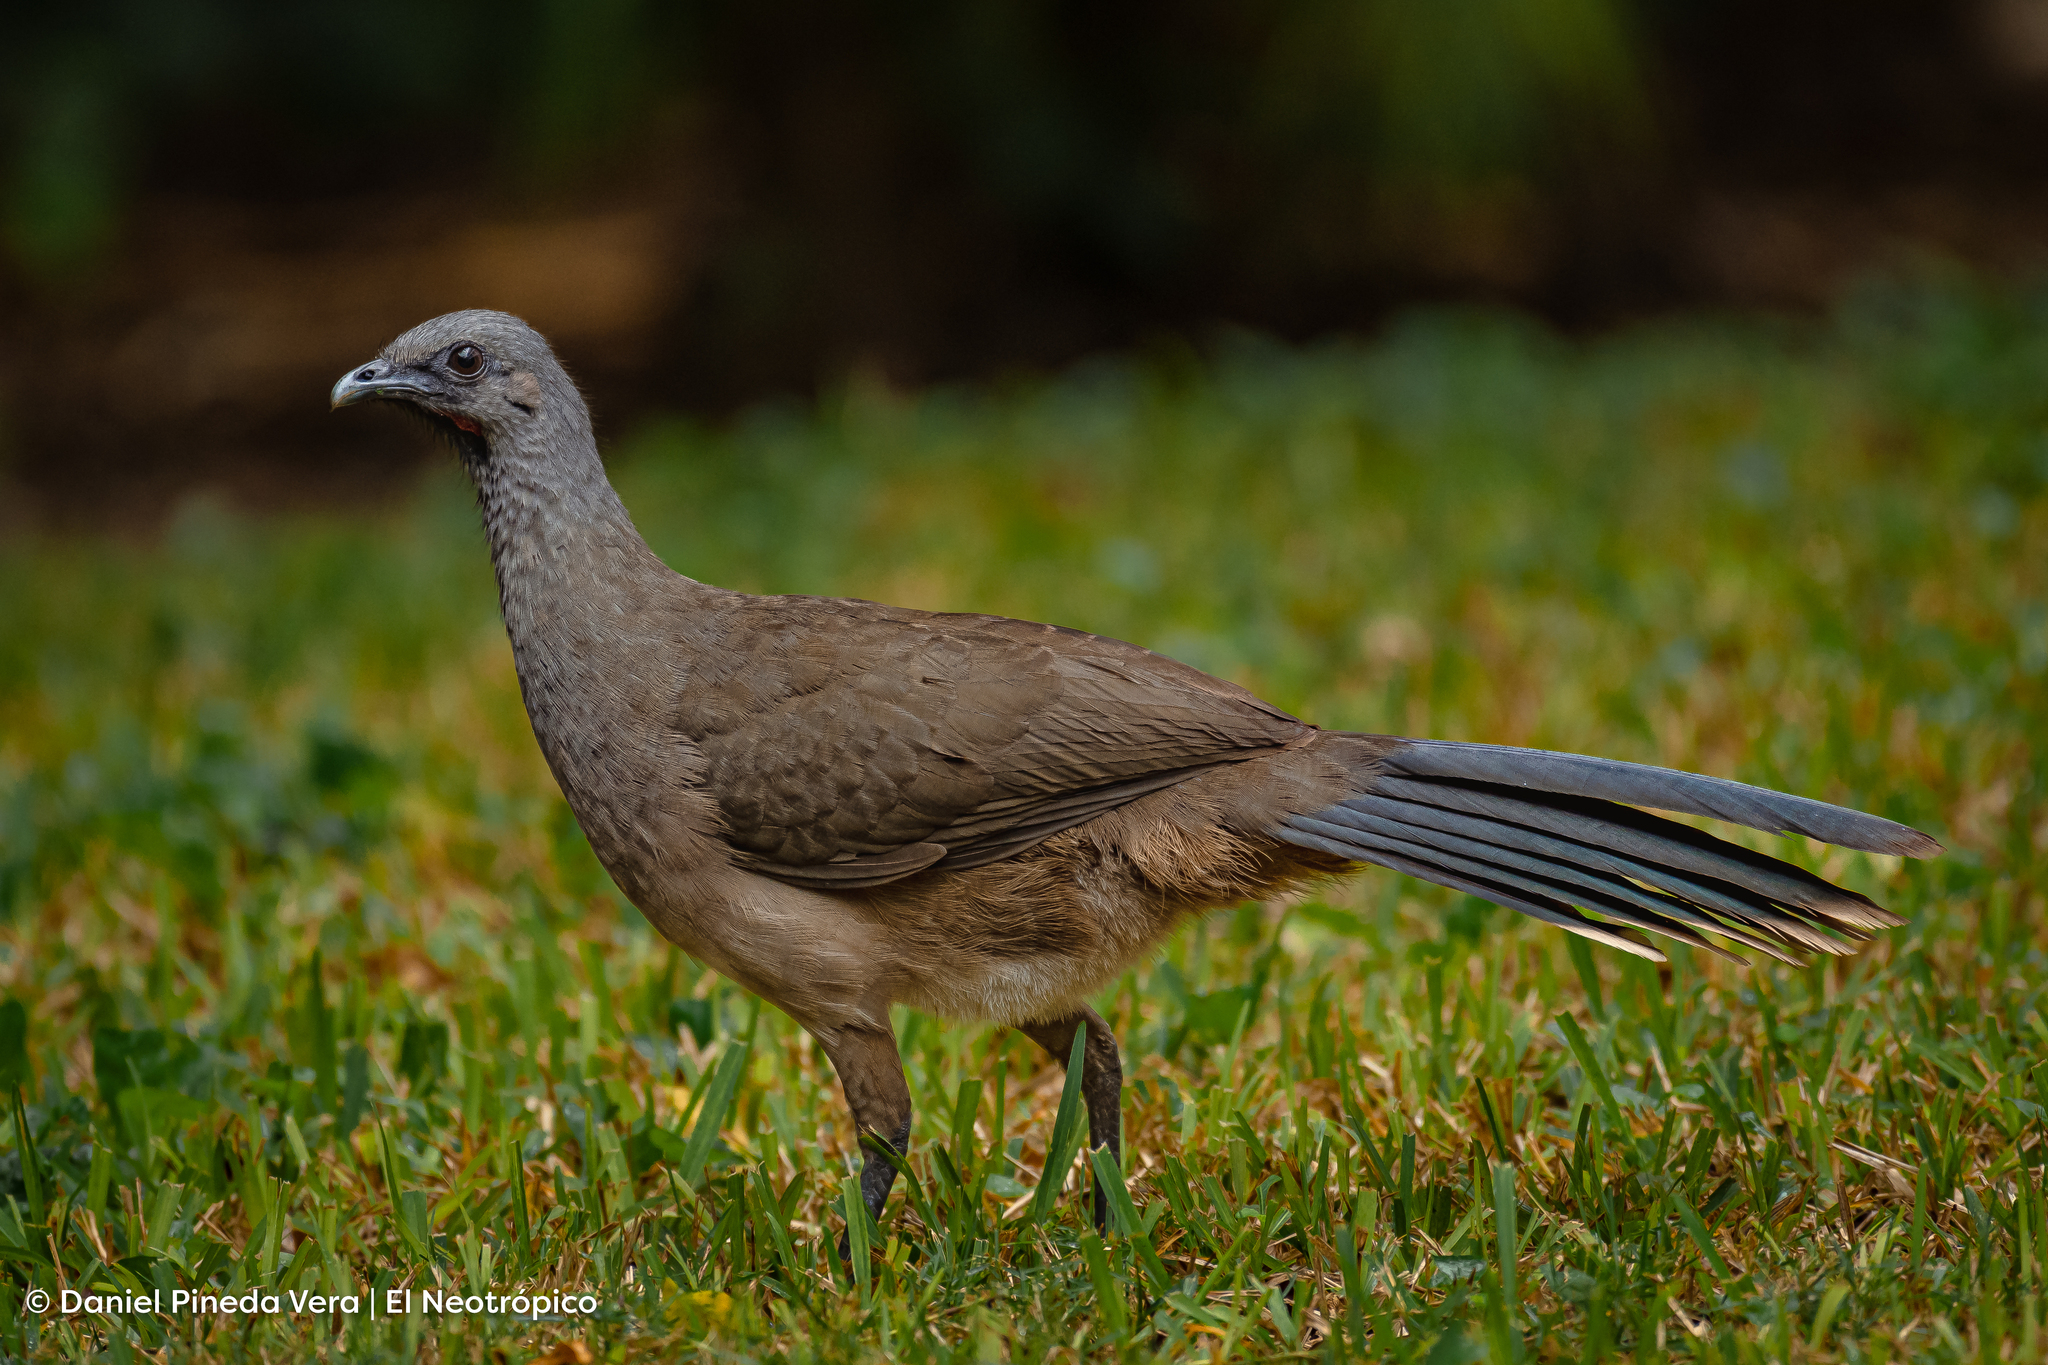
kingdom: Animalia
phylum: Chordata
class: Aves
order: Galliformes
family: Cracidae
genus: Ortalis
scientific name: Ortalis vetula
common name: Plain chachalaca
